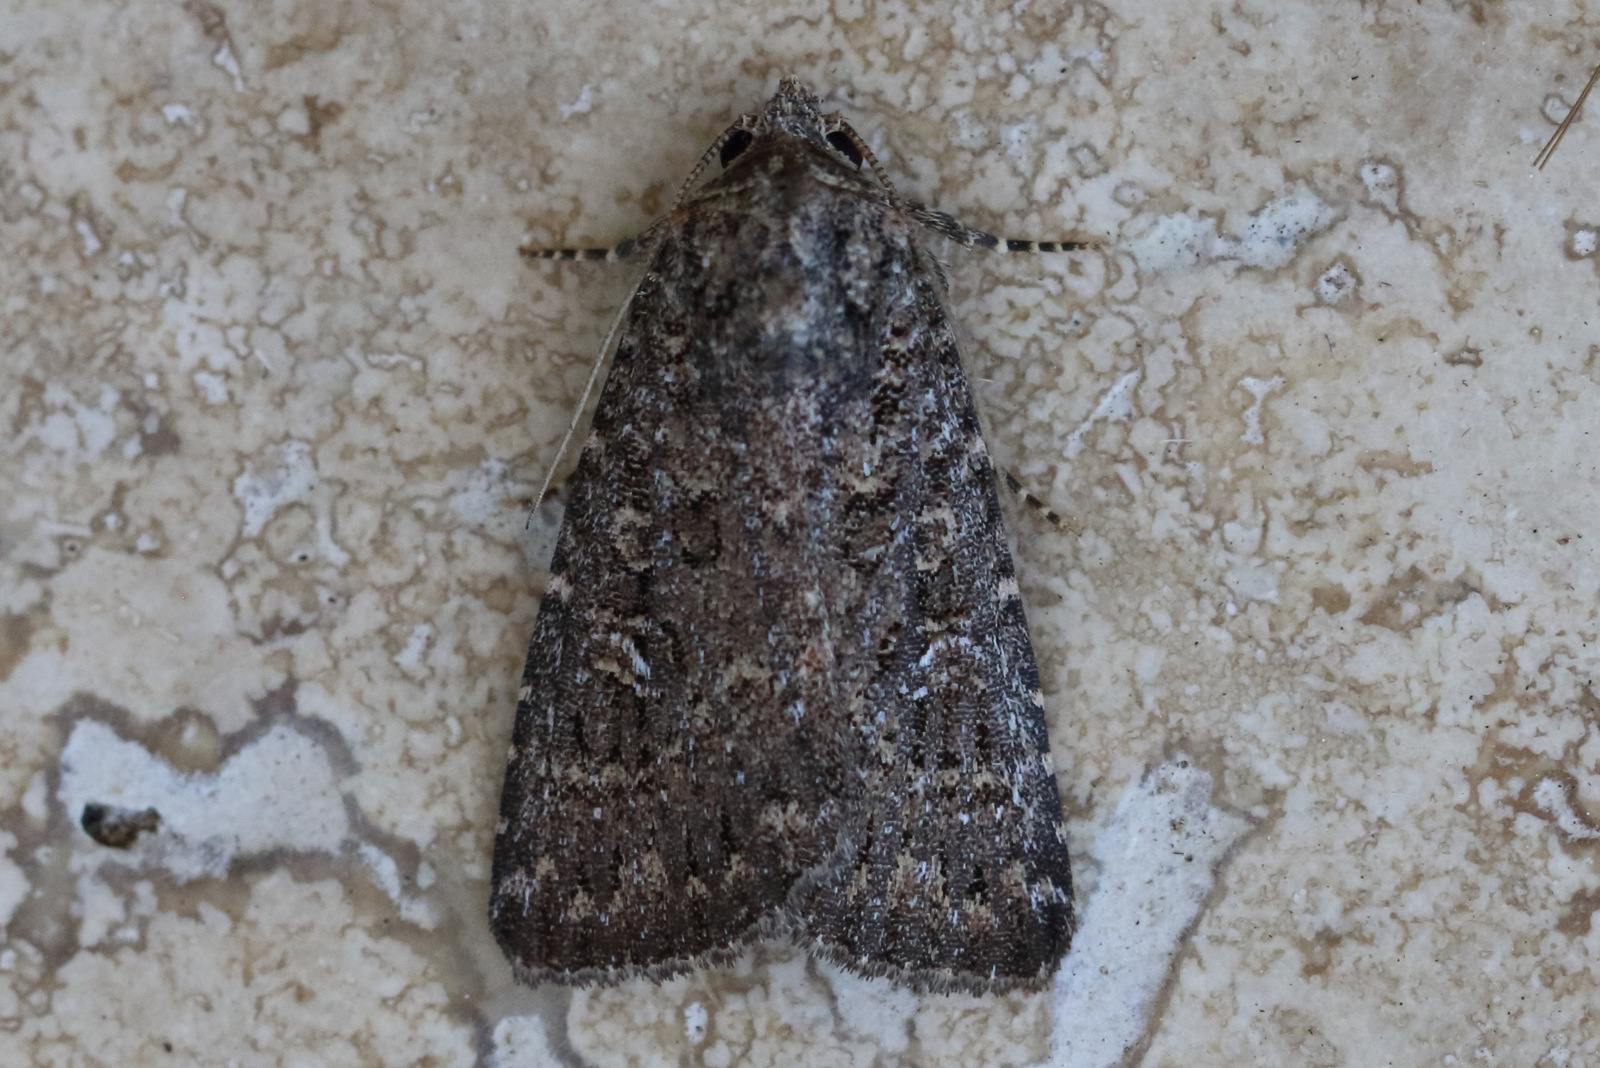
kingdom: Animalia
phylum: Arthropoda
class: Insecta
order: Lepidoptera
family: Noctuidae
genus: Hypoperigea
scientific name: Hypoperigea tonsa
